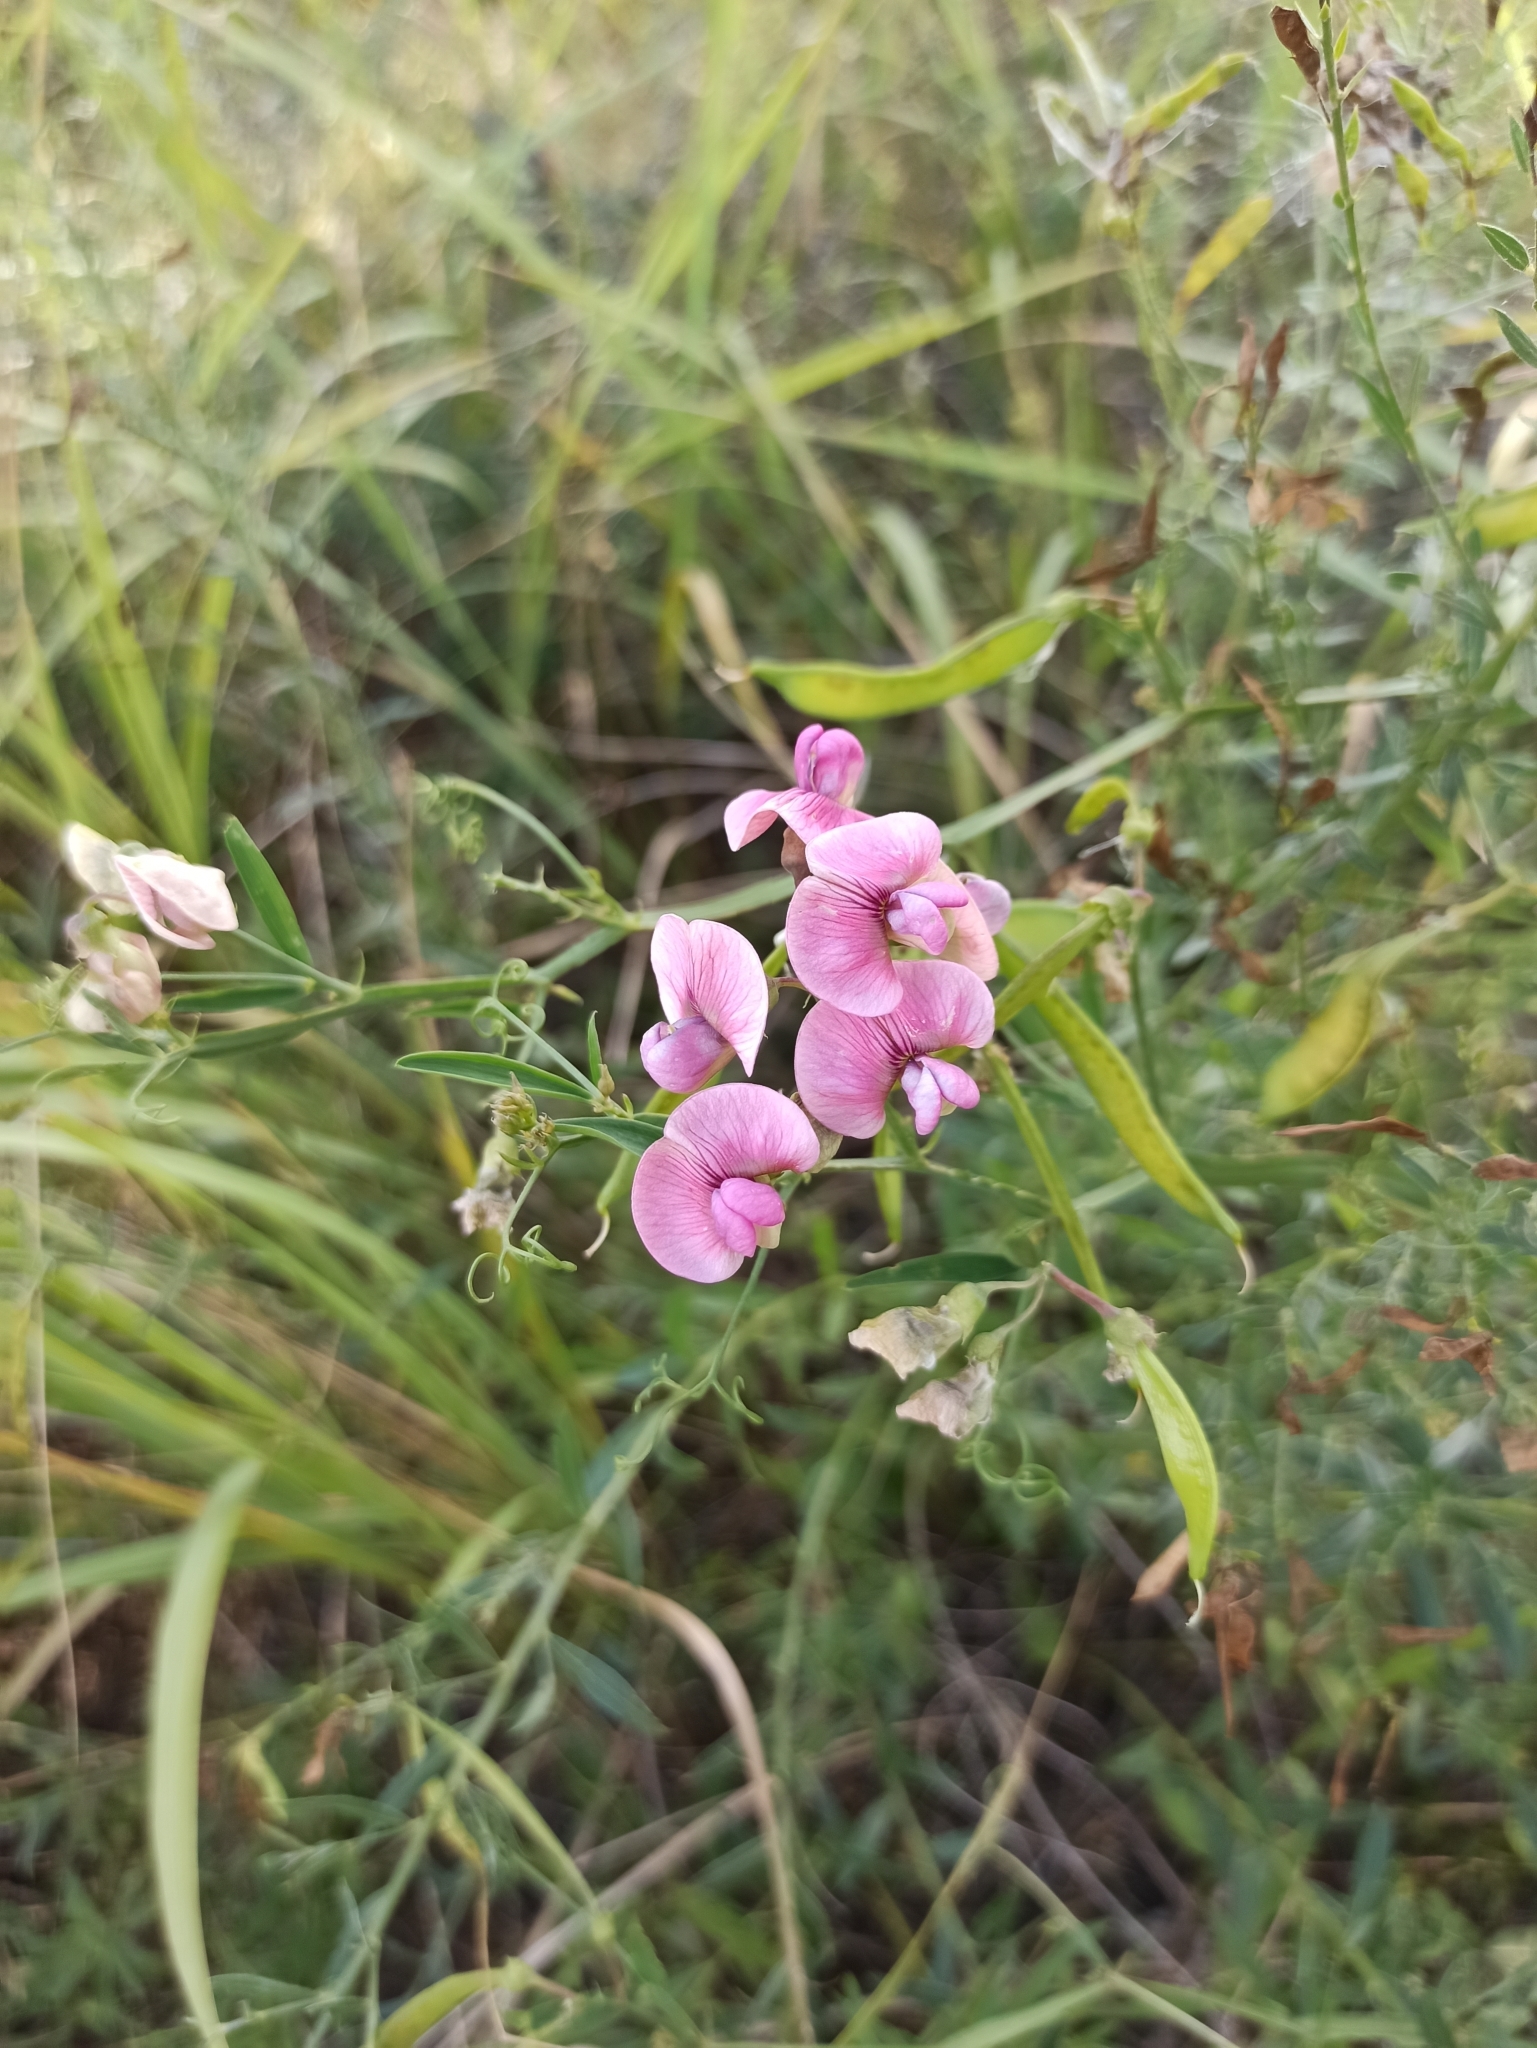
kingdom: Plantae
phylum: Tracheophyta
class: Magnoliopsida
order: Fabales
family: Fabaceae
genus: Lathyrus
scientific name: Lathyrus sylvestris
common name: Flat pea
